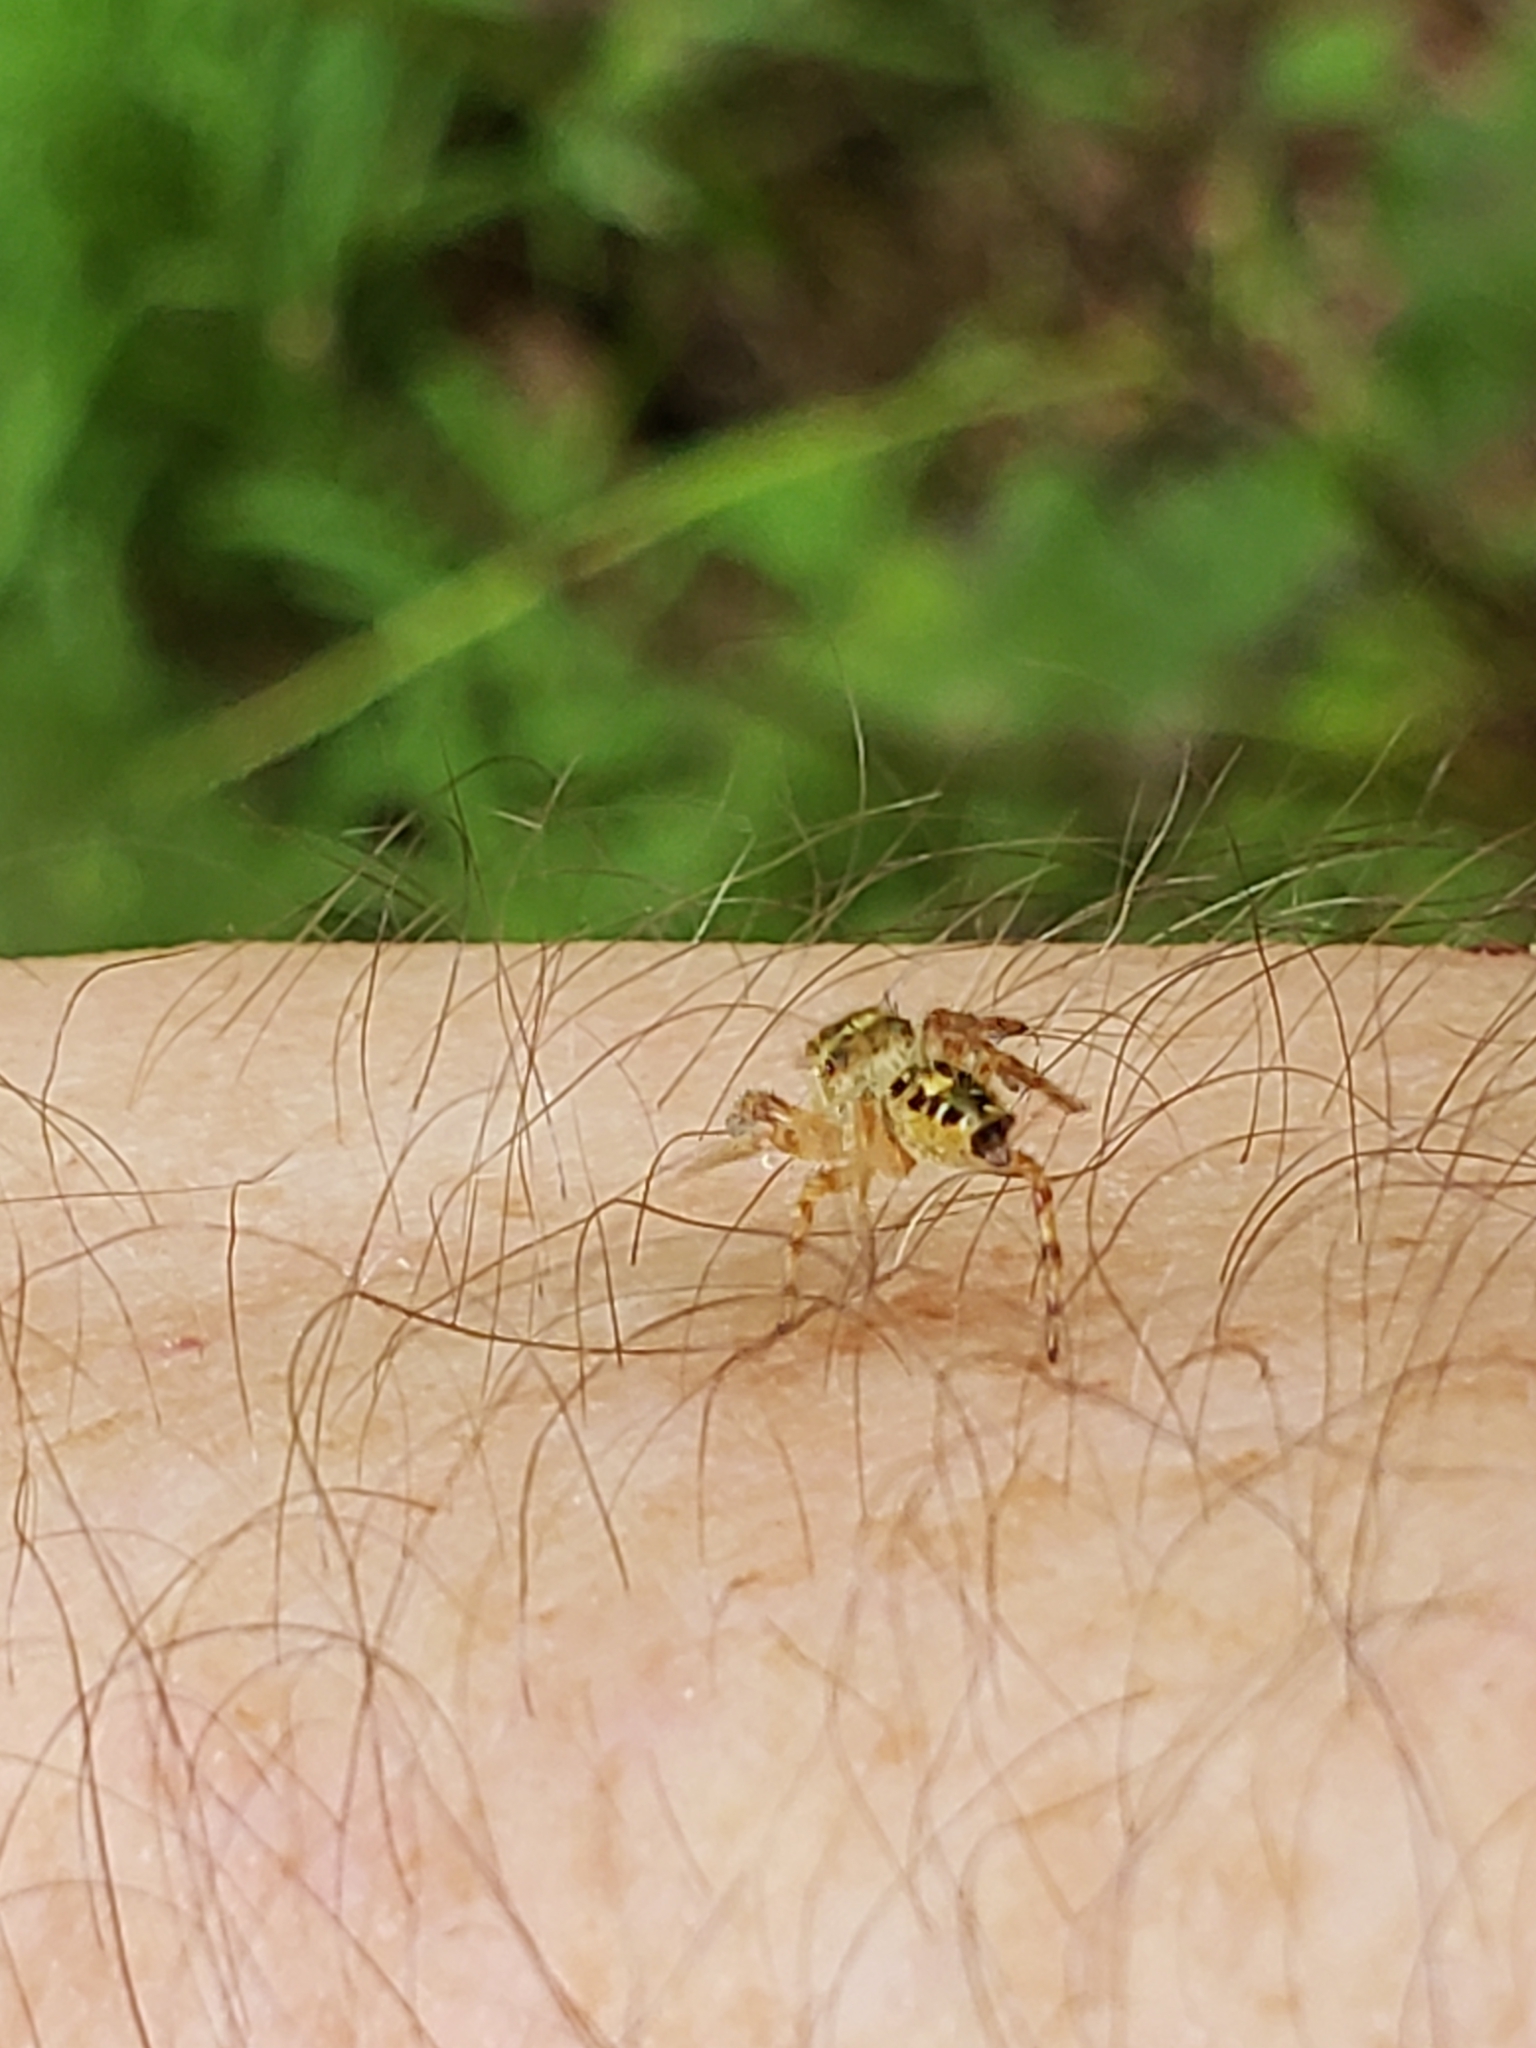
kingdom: Animalia
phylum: Arthropoda
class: Arachnida
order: Araneae
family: Salticidae
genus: Phidippus
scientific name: Phidippus princeps
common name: Grayish jumping spider
